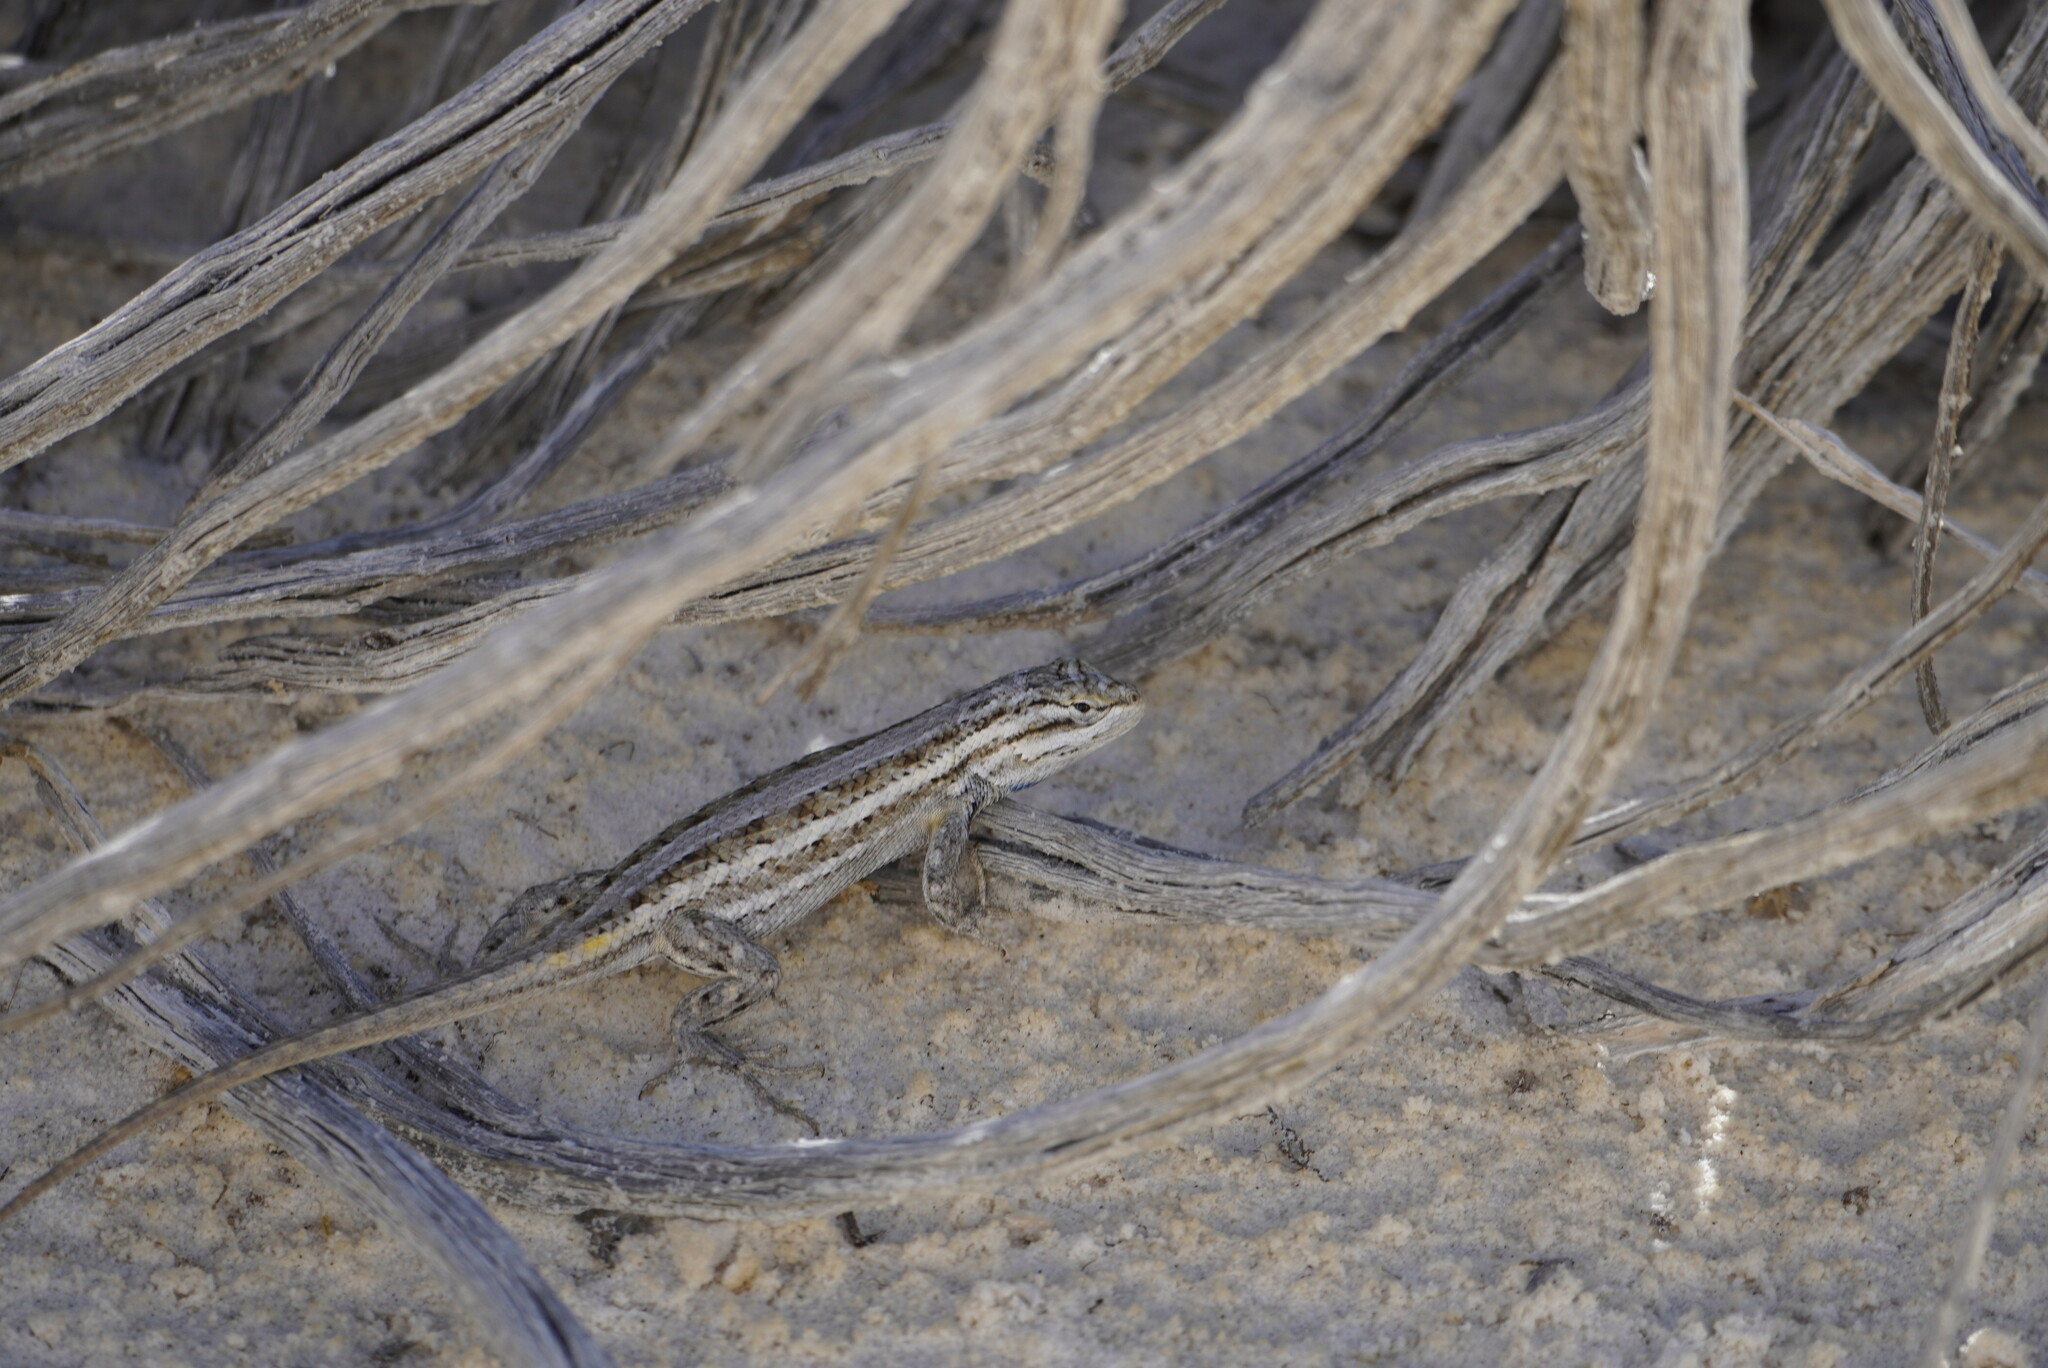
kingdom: Animalia
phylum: Chordata
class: Squamata
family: Phrynosomatidae
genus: Sceloporus
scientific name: Sceloporus cowlesi
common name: White sands prairie lizard
